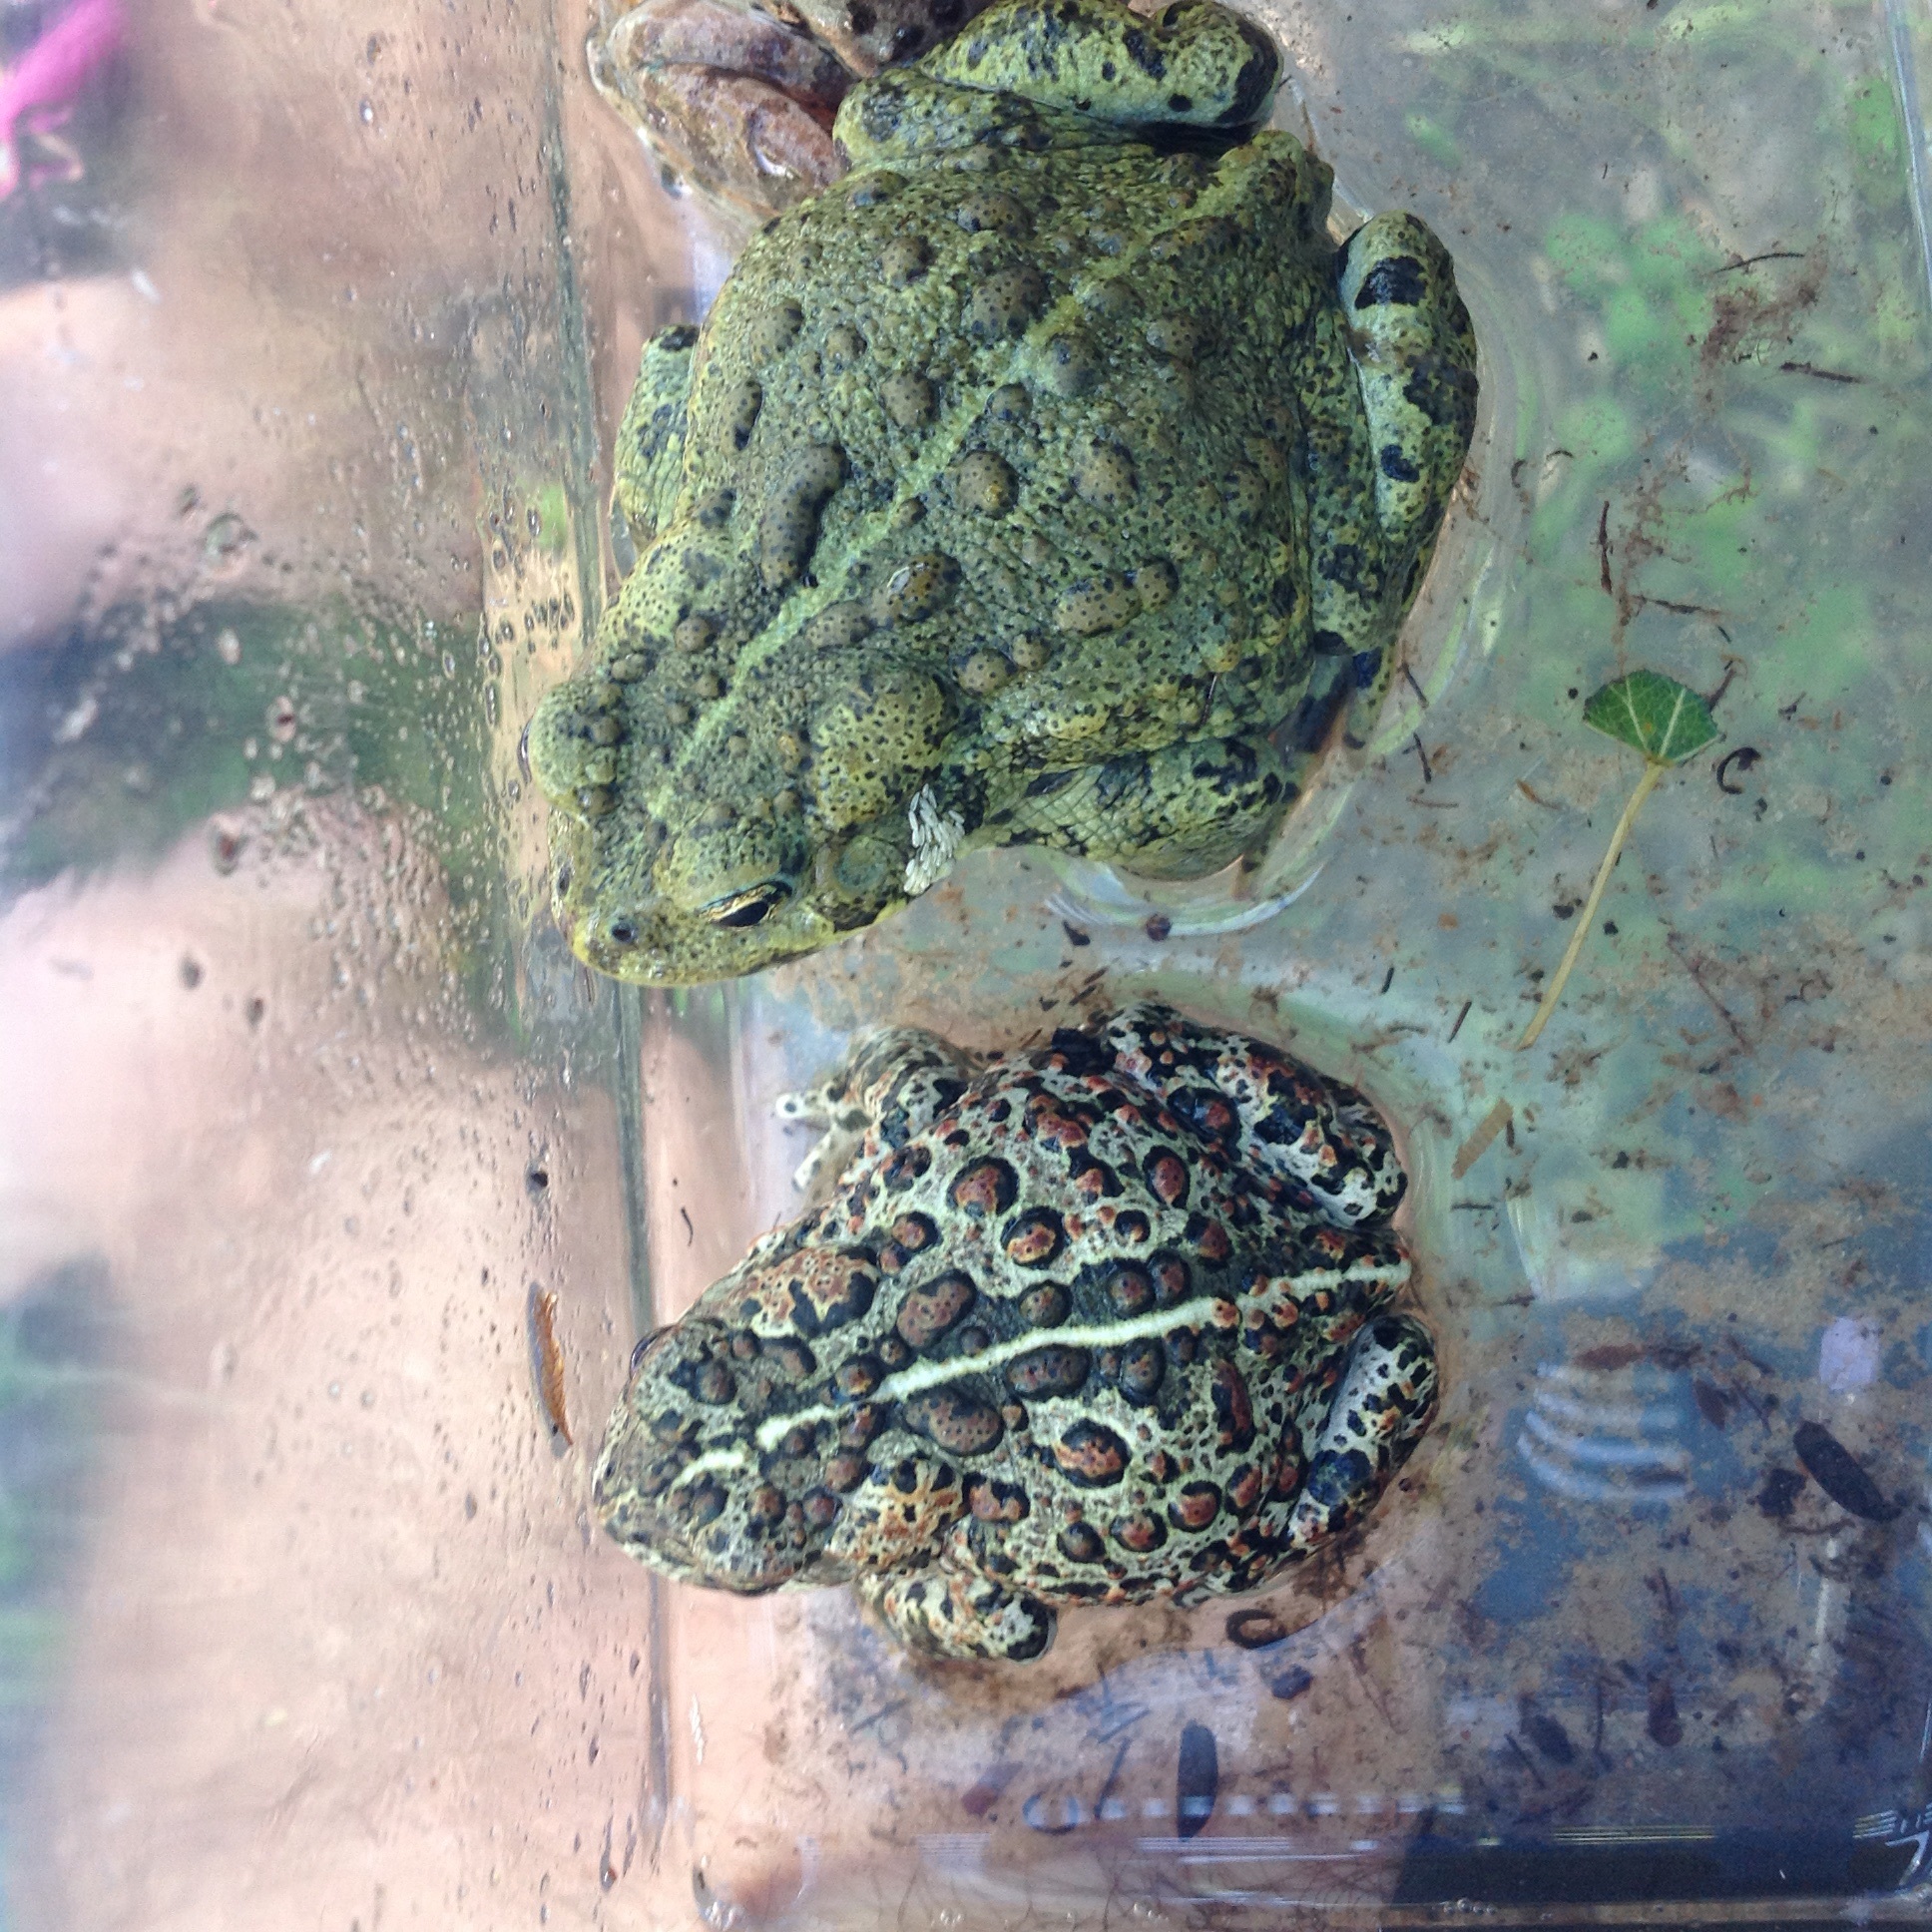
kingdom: Animalia
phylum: Chordata
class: Amphibia
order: Anura
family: Bufonidae
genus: Anaxyrus
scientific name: Anaxyrus boreas
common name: Western toad
